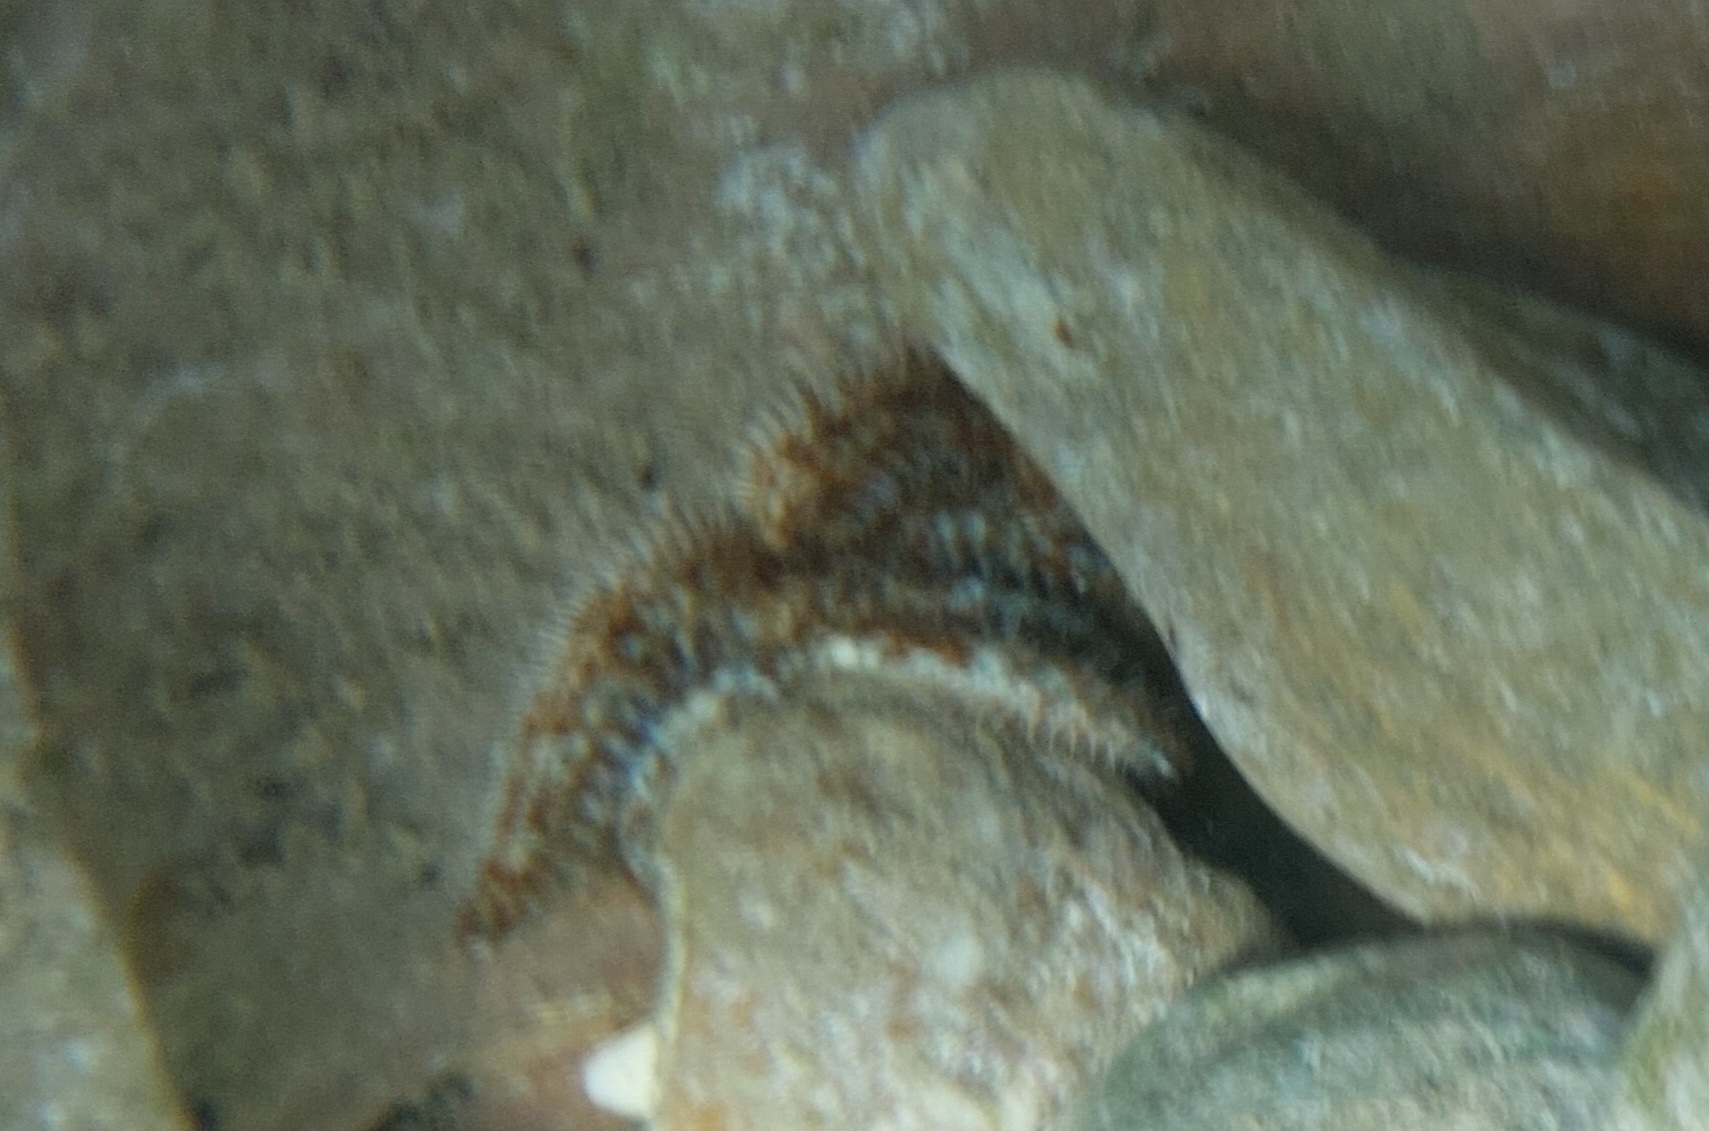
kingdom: Animalia
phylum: Echinodermata
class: Asteroidea
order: Forcipulatida
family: Asteriidae
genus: Coscinasterias
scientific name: Coscinasterias tenuispina
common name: Blue spiny starfish
